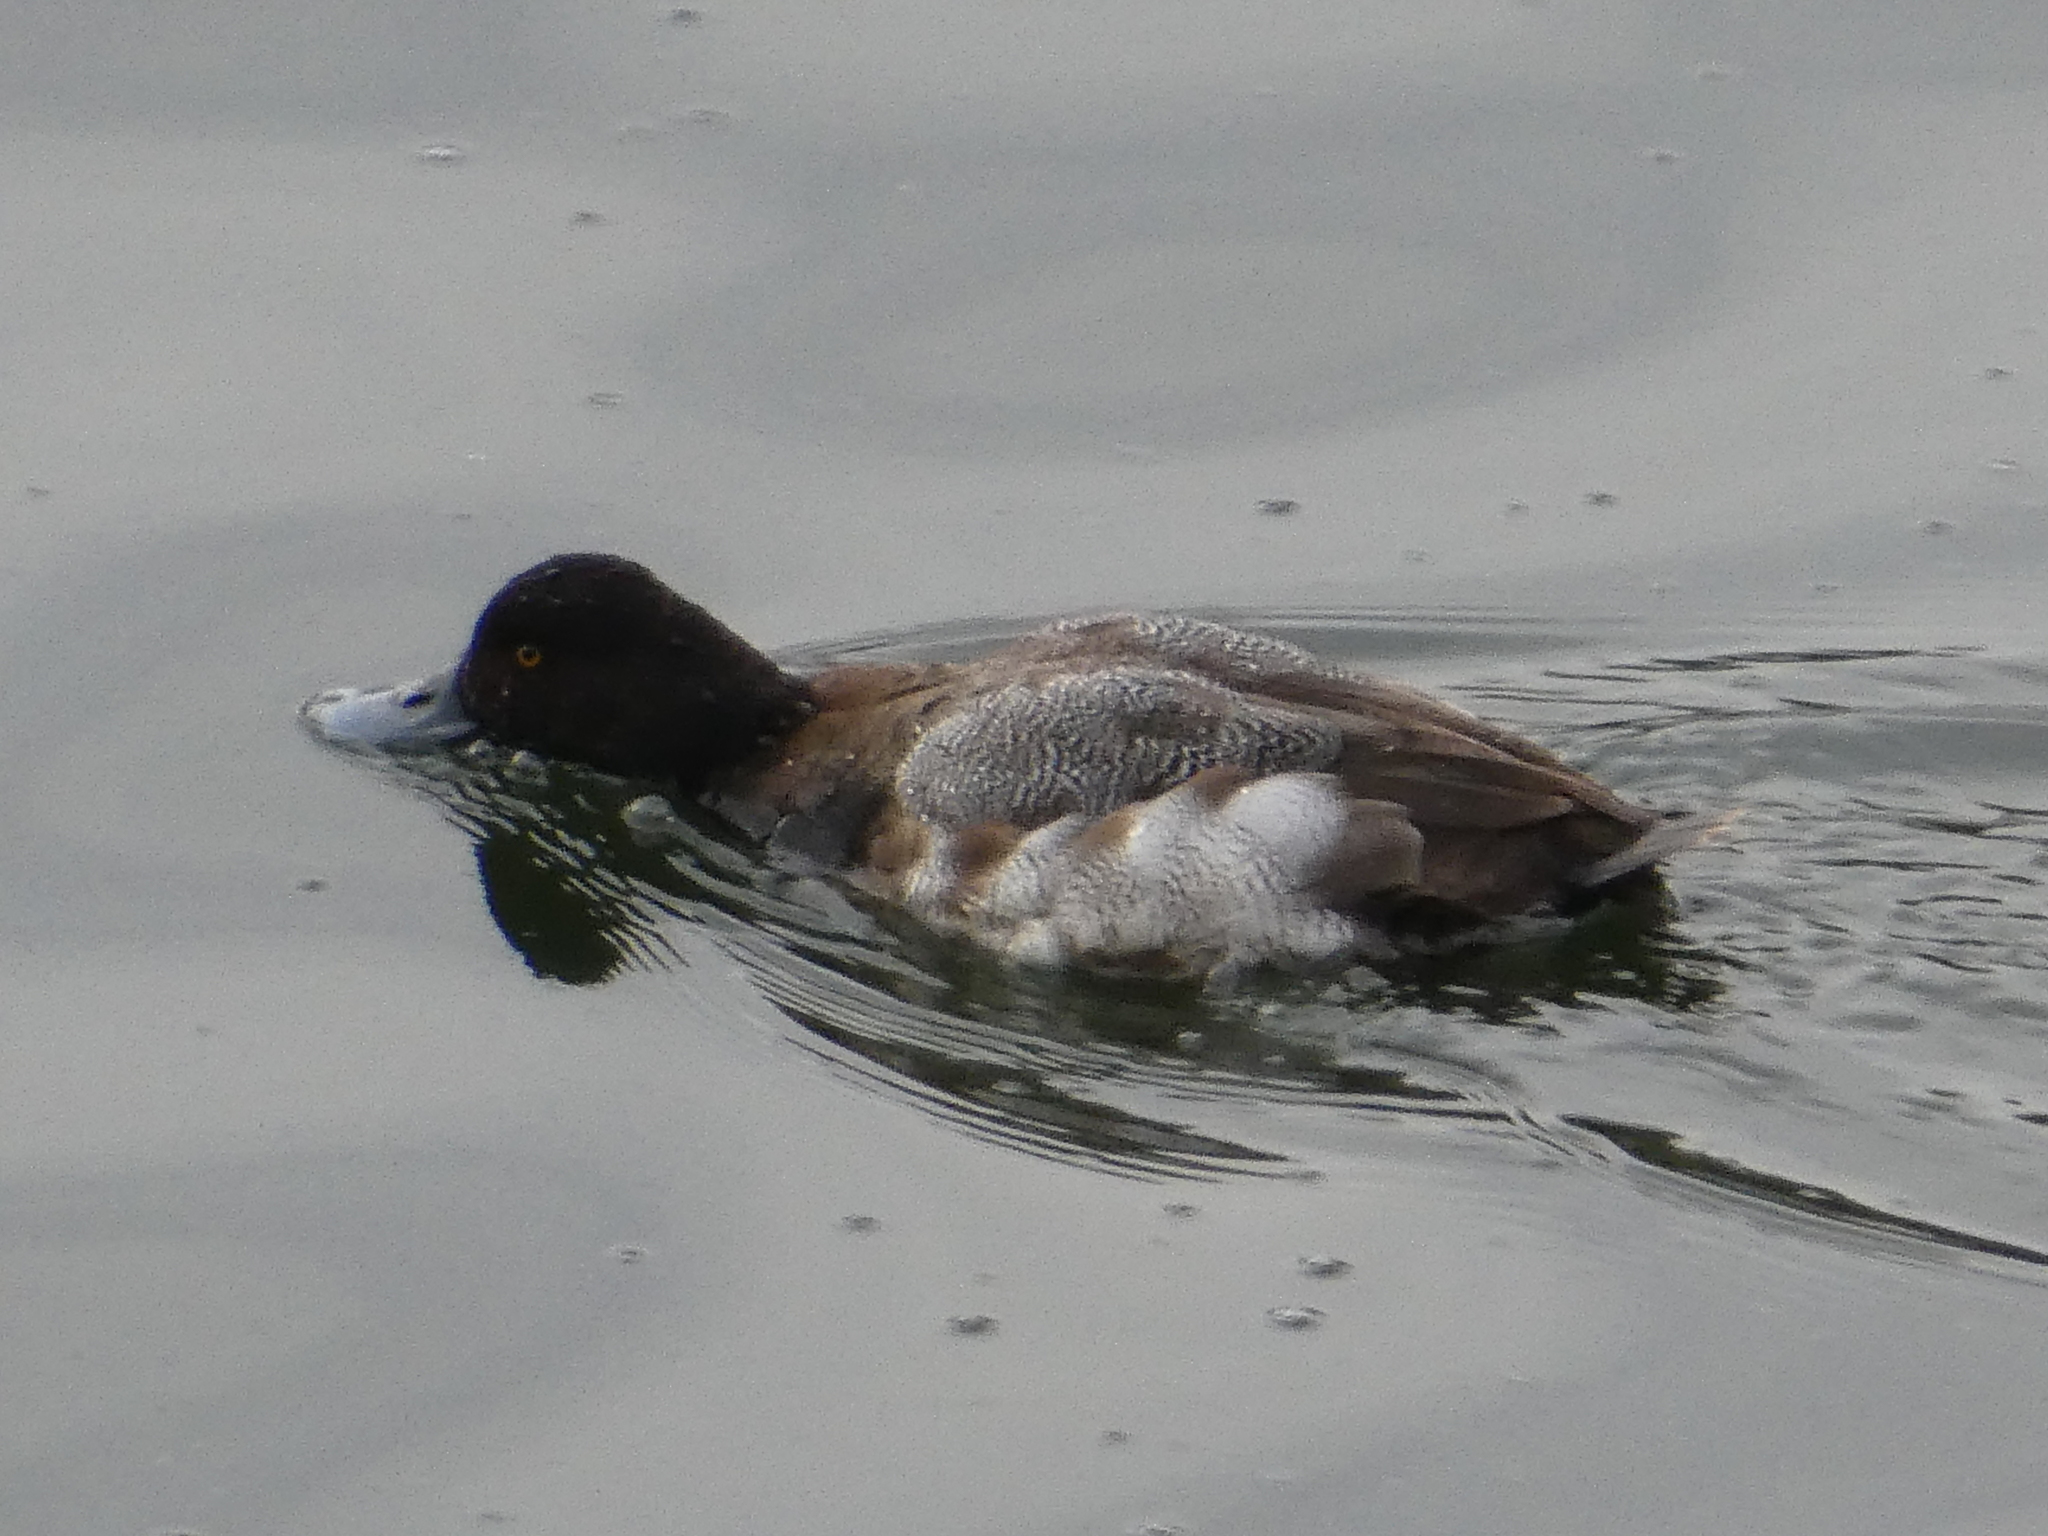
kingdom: Animalia
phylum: Chordata
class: Aves
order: Anseriformes
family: Anatidae
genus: Aythya
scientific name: Aythya affinis
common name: Lesser scaup
